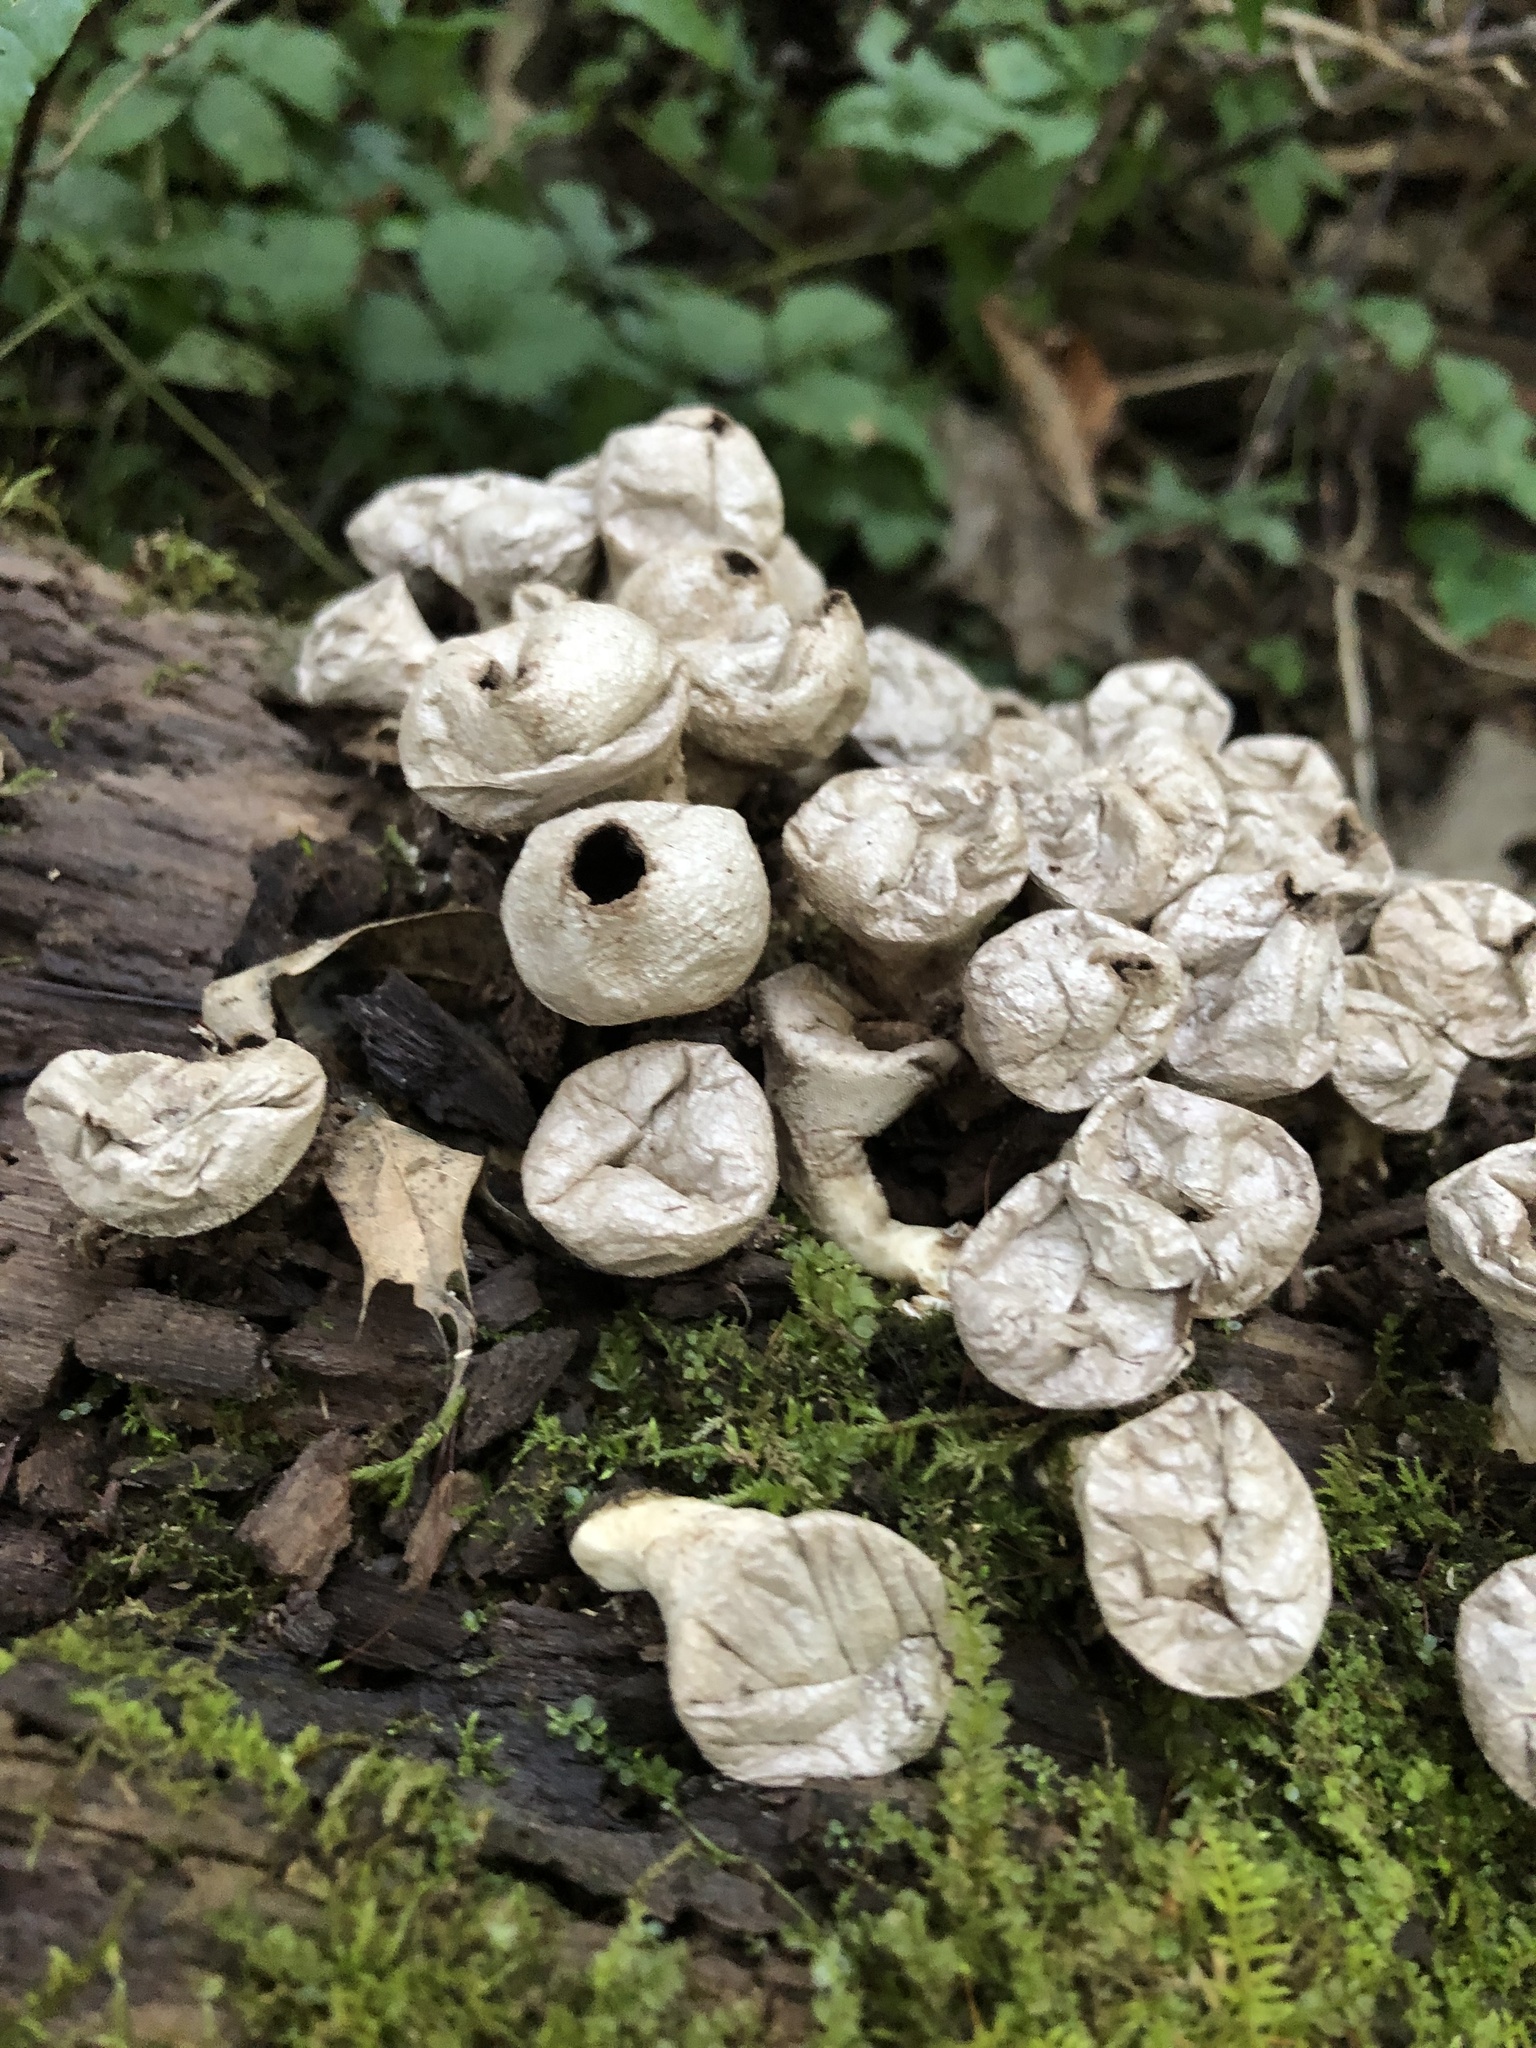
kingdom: Fungi
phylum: Basidiomycota
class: Agaricomycetes
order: Agaricales
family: Lycoperdaceae
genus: Apioperdon
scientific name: Apioperdon pyriforme
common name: Pear-shaped puffball
